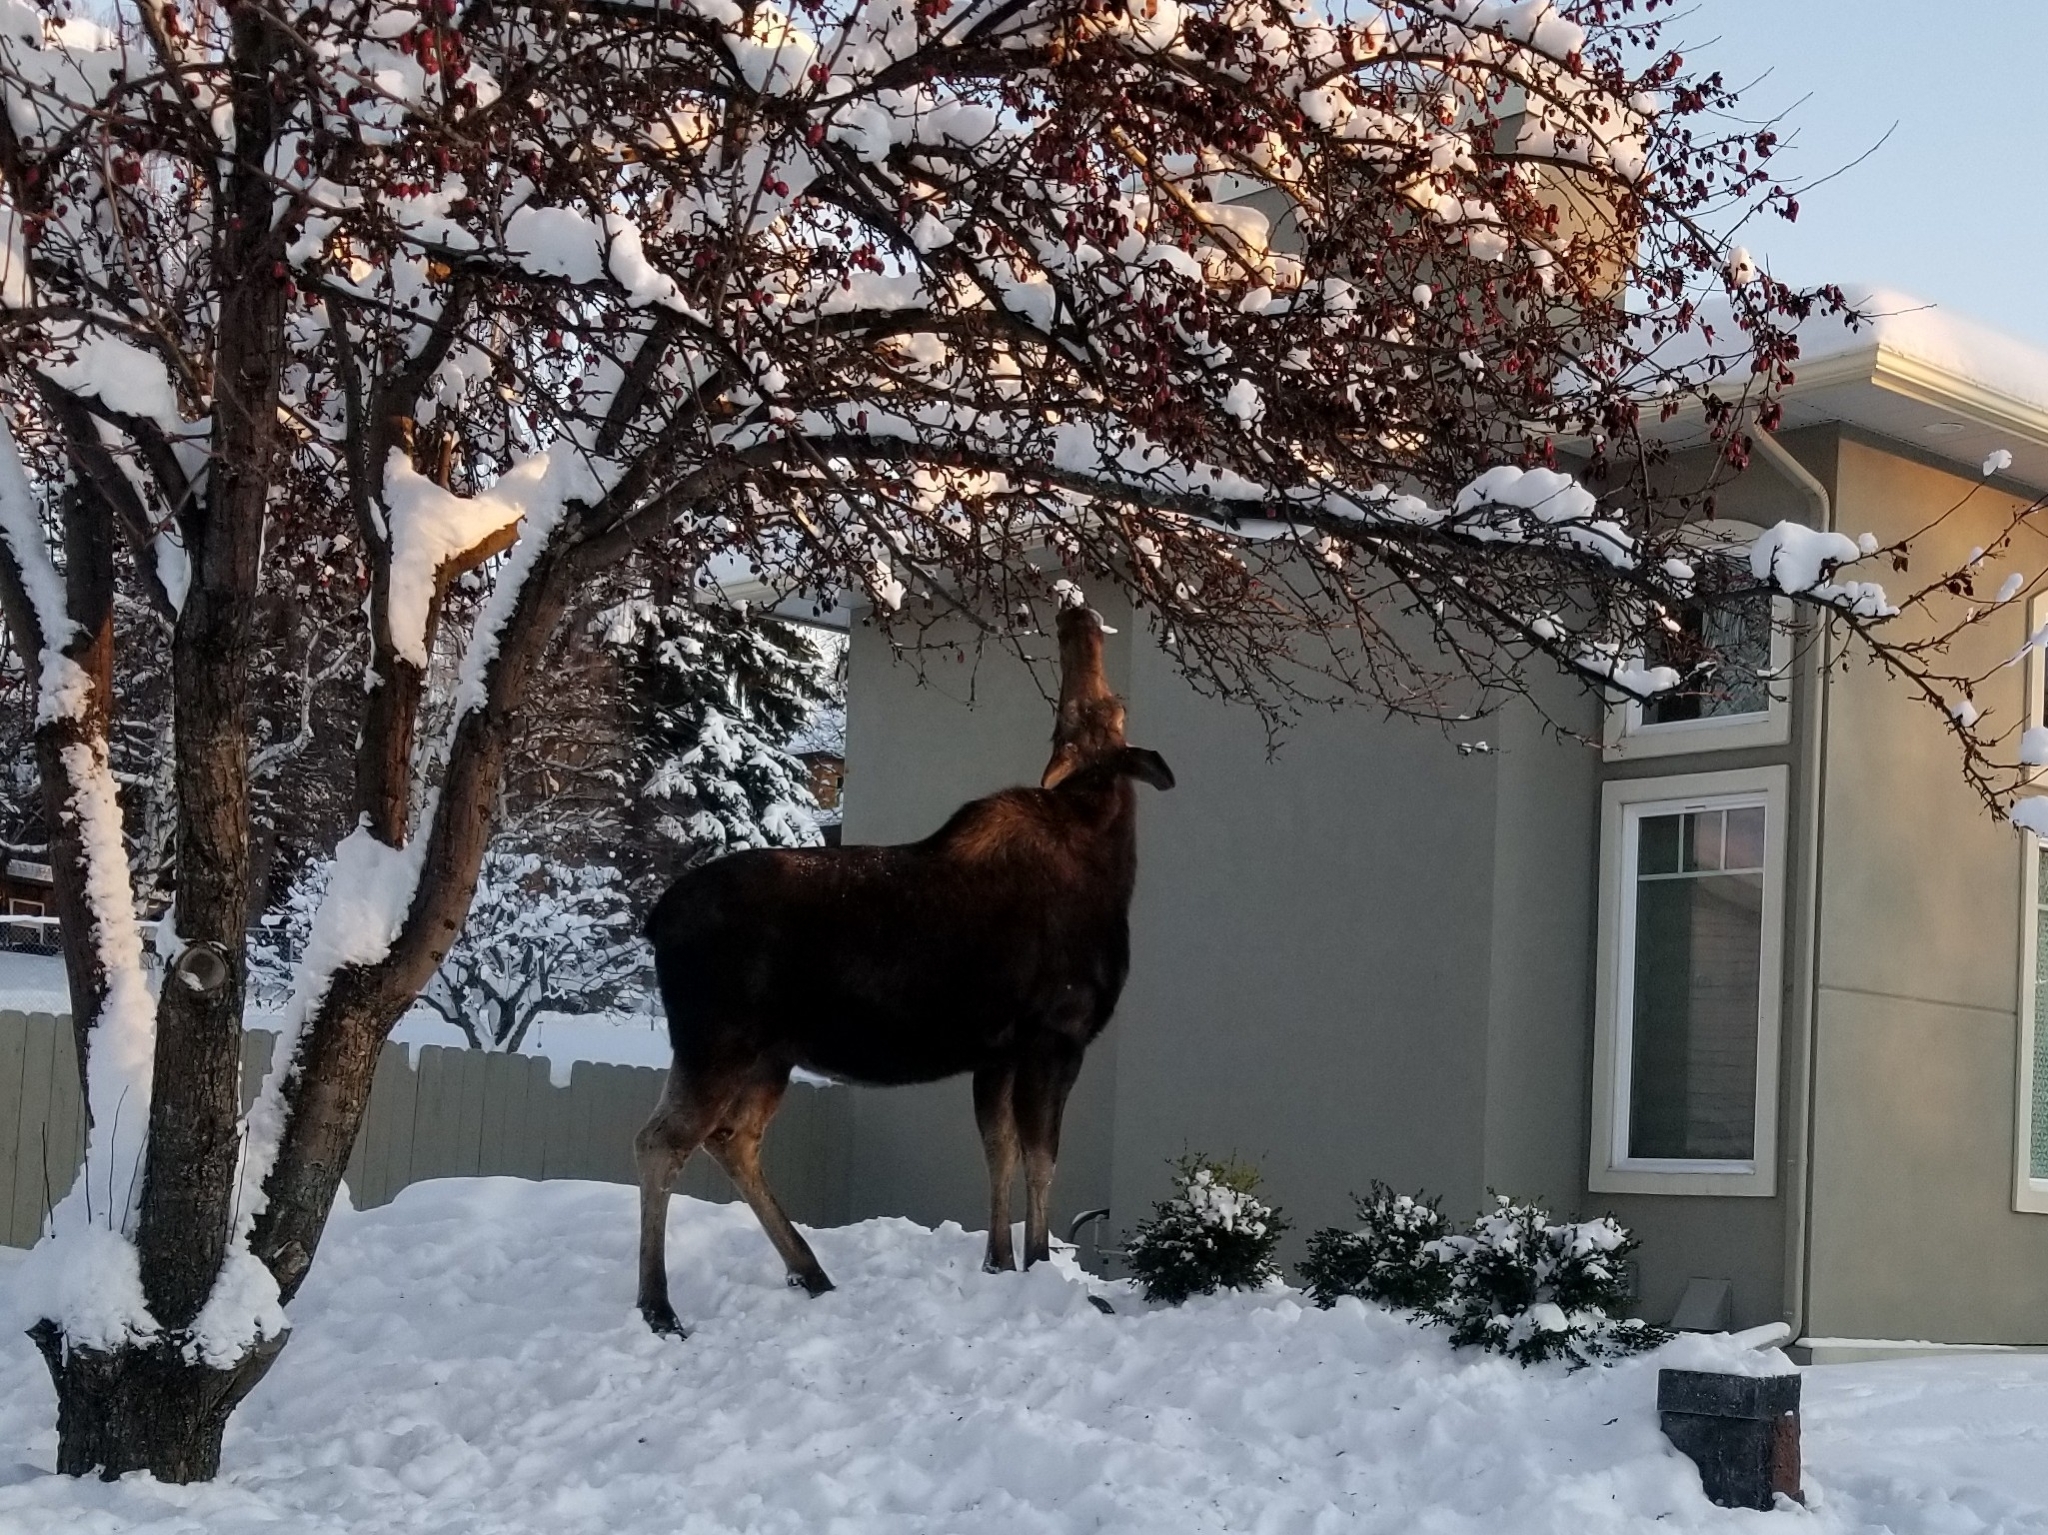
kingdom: Animalia
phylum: Chordata
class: Mammalia
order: Artiodactyla
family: Cervidae
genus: Alces
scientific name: Alces alces
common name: Moose
